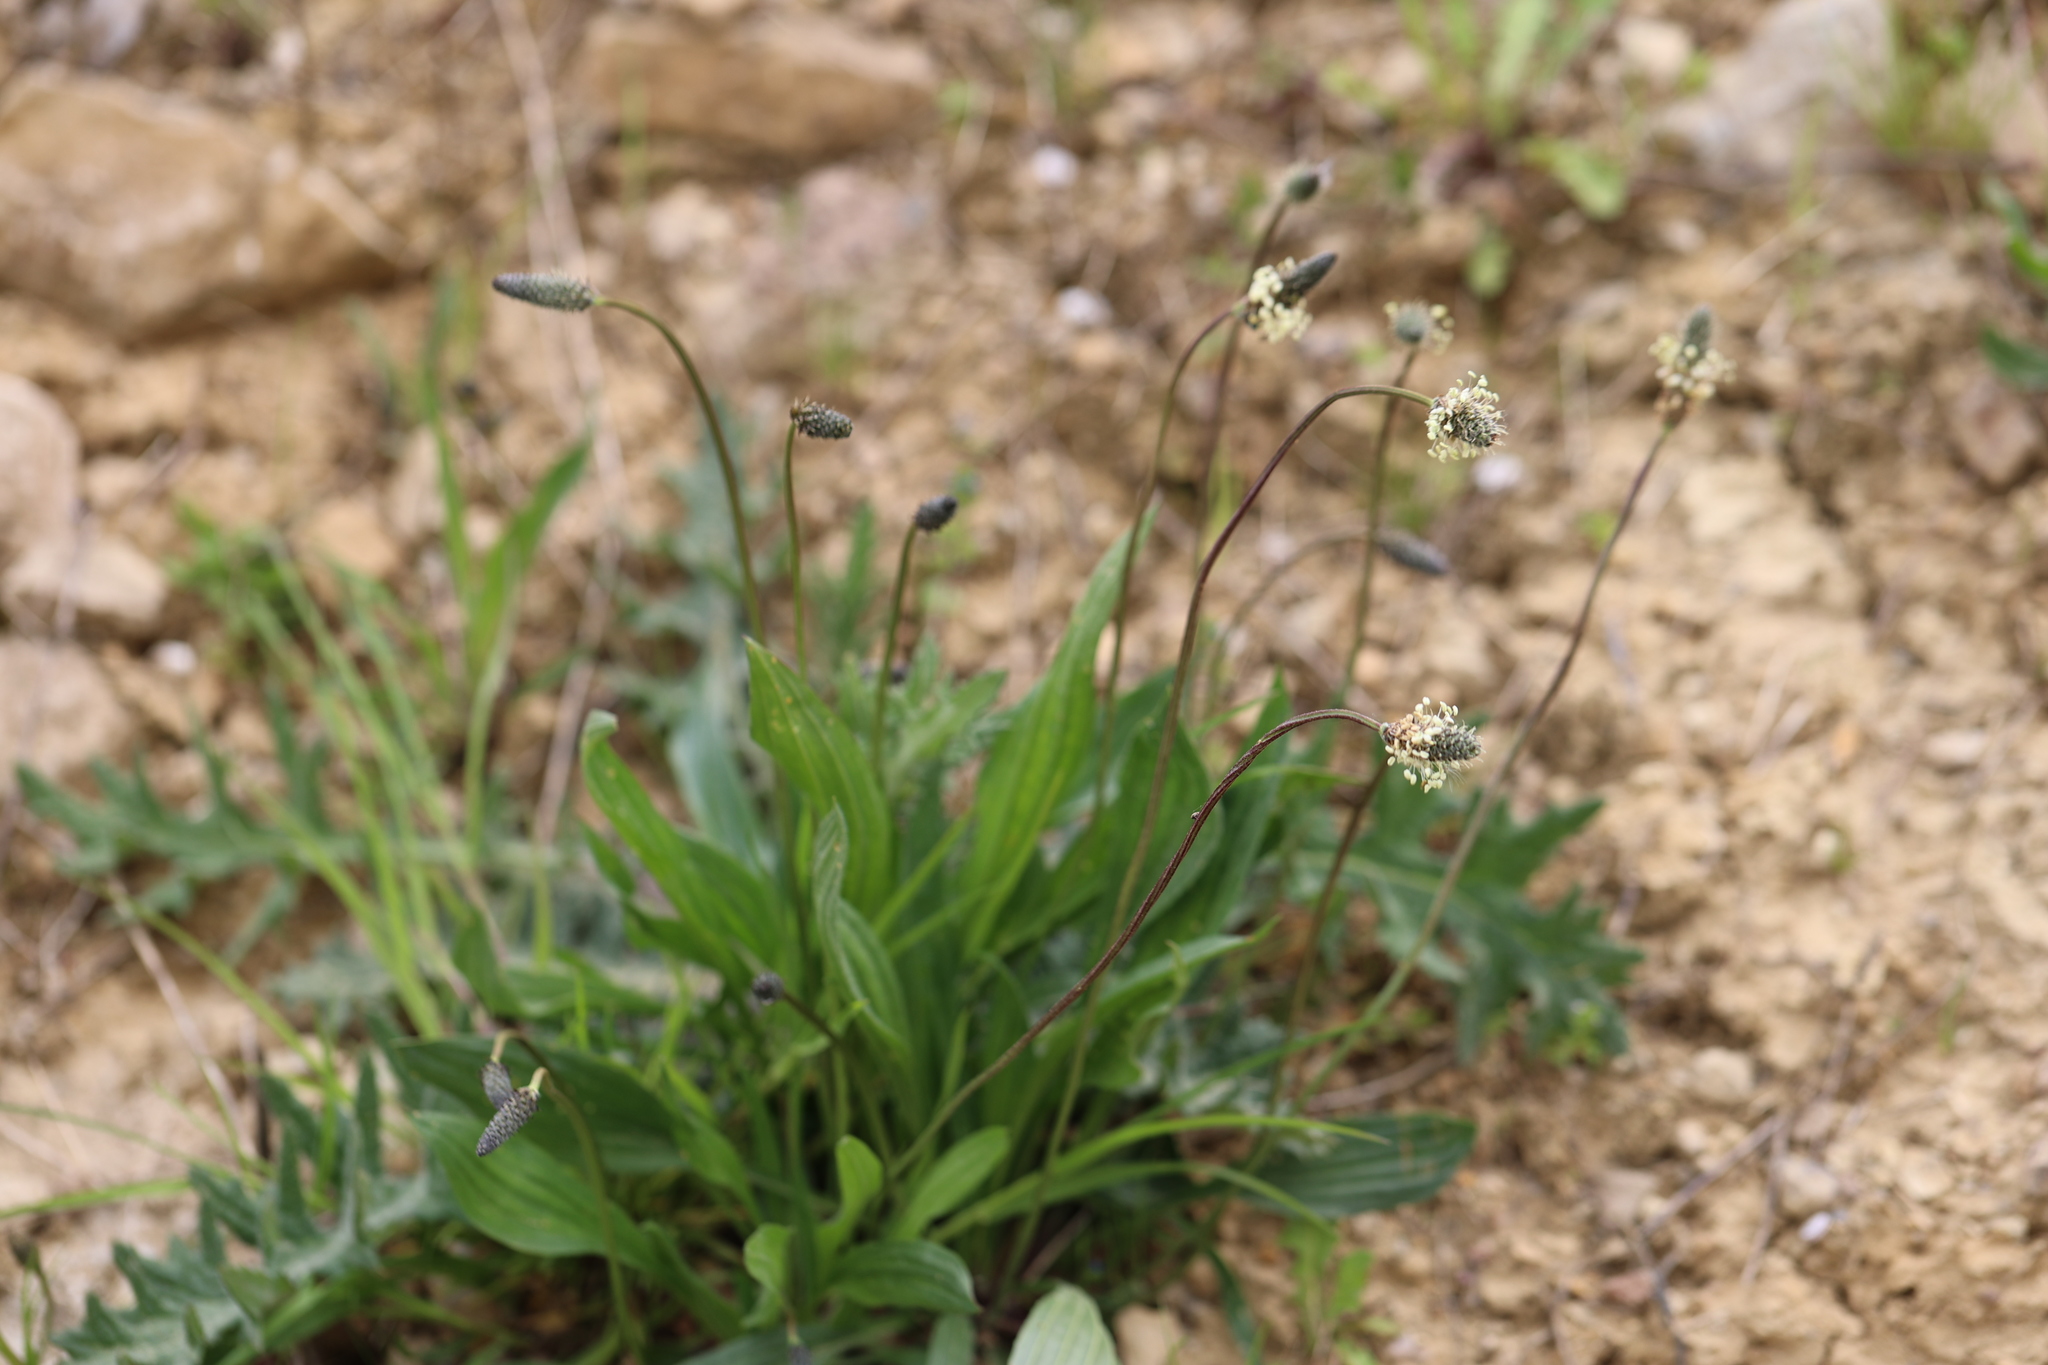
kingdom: Plantae
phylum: Tracheophyta
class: Magnoliopsida
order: Lamiales
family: Plantaginaceae
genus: Plantago
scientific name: Plantago lanceolata
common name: Ribwort plantain
